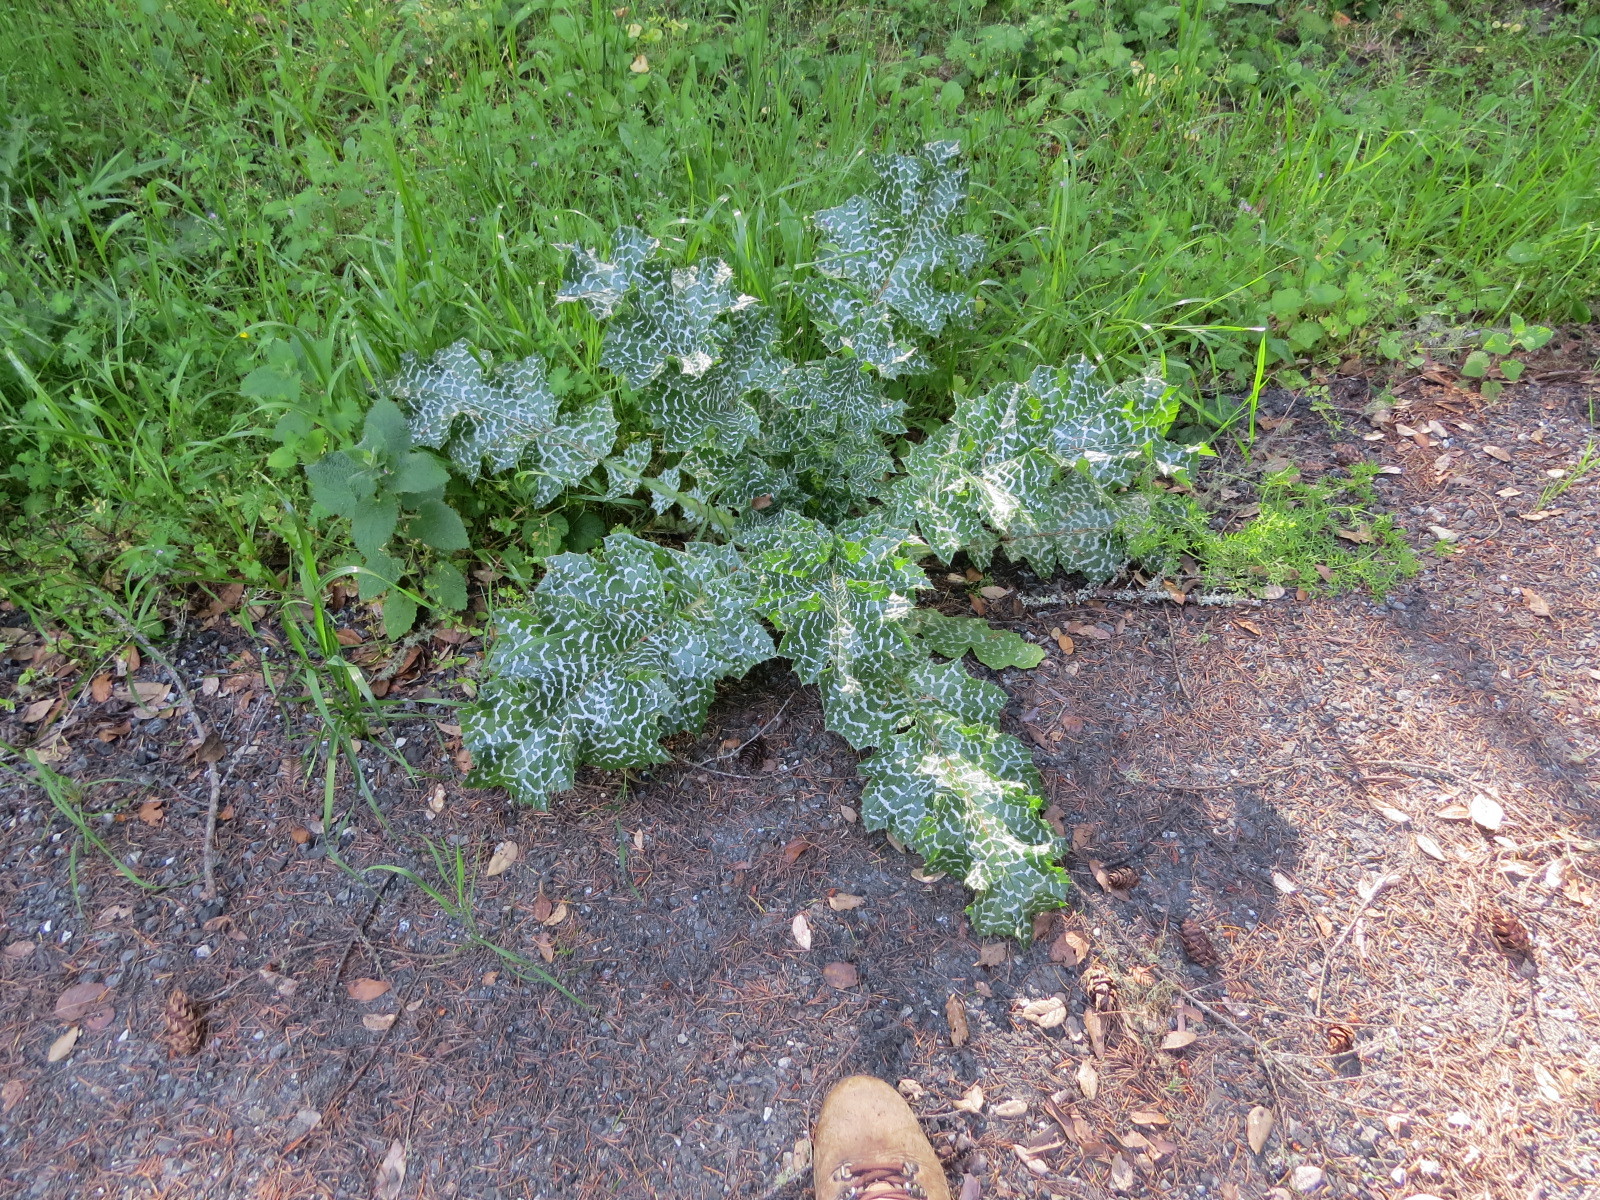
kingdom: Plantae
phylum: Tracheophyta
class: Magnoliopsida
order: Asterales
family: Asteraceae
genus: Silybum
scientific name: Silybum marianum
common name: Milk thistle
